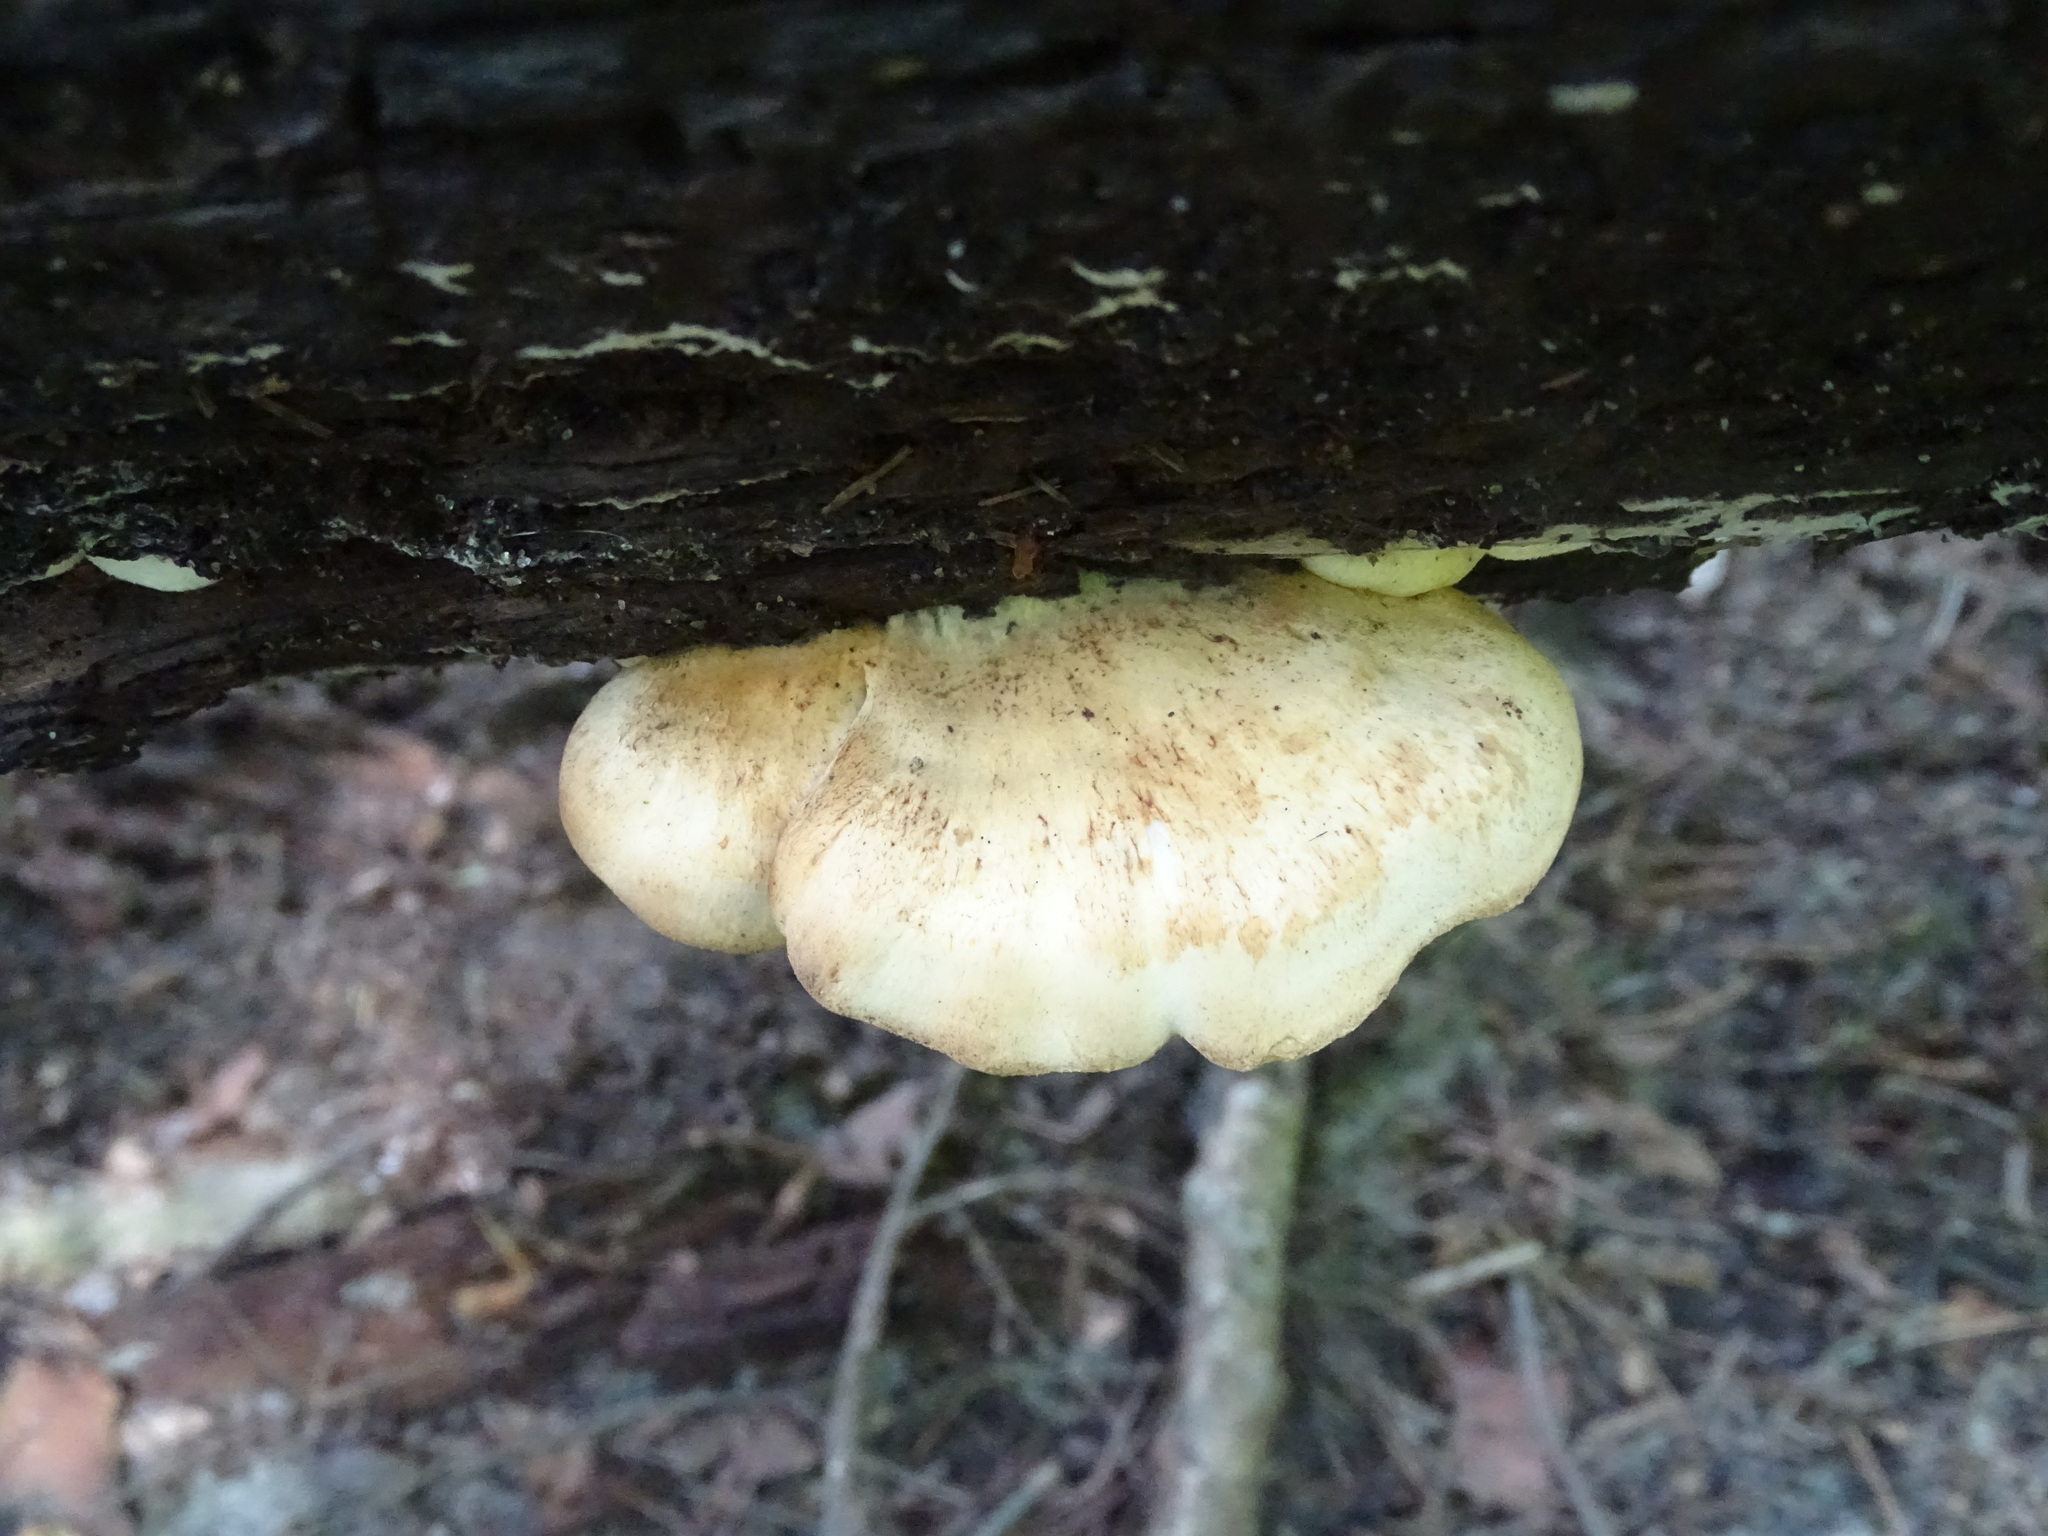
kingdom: Fungi
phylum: Basidiomycota
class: Agaricomycetes
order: Boletales
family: Tapinellaceae
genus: Tapinella
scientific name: Tapinella panuoides
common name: Oyster rollrim
